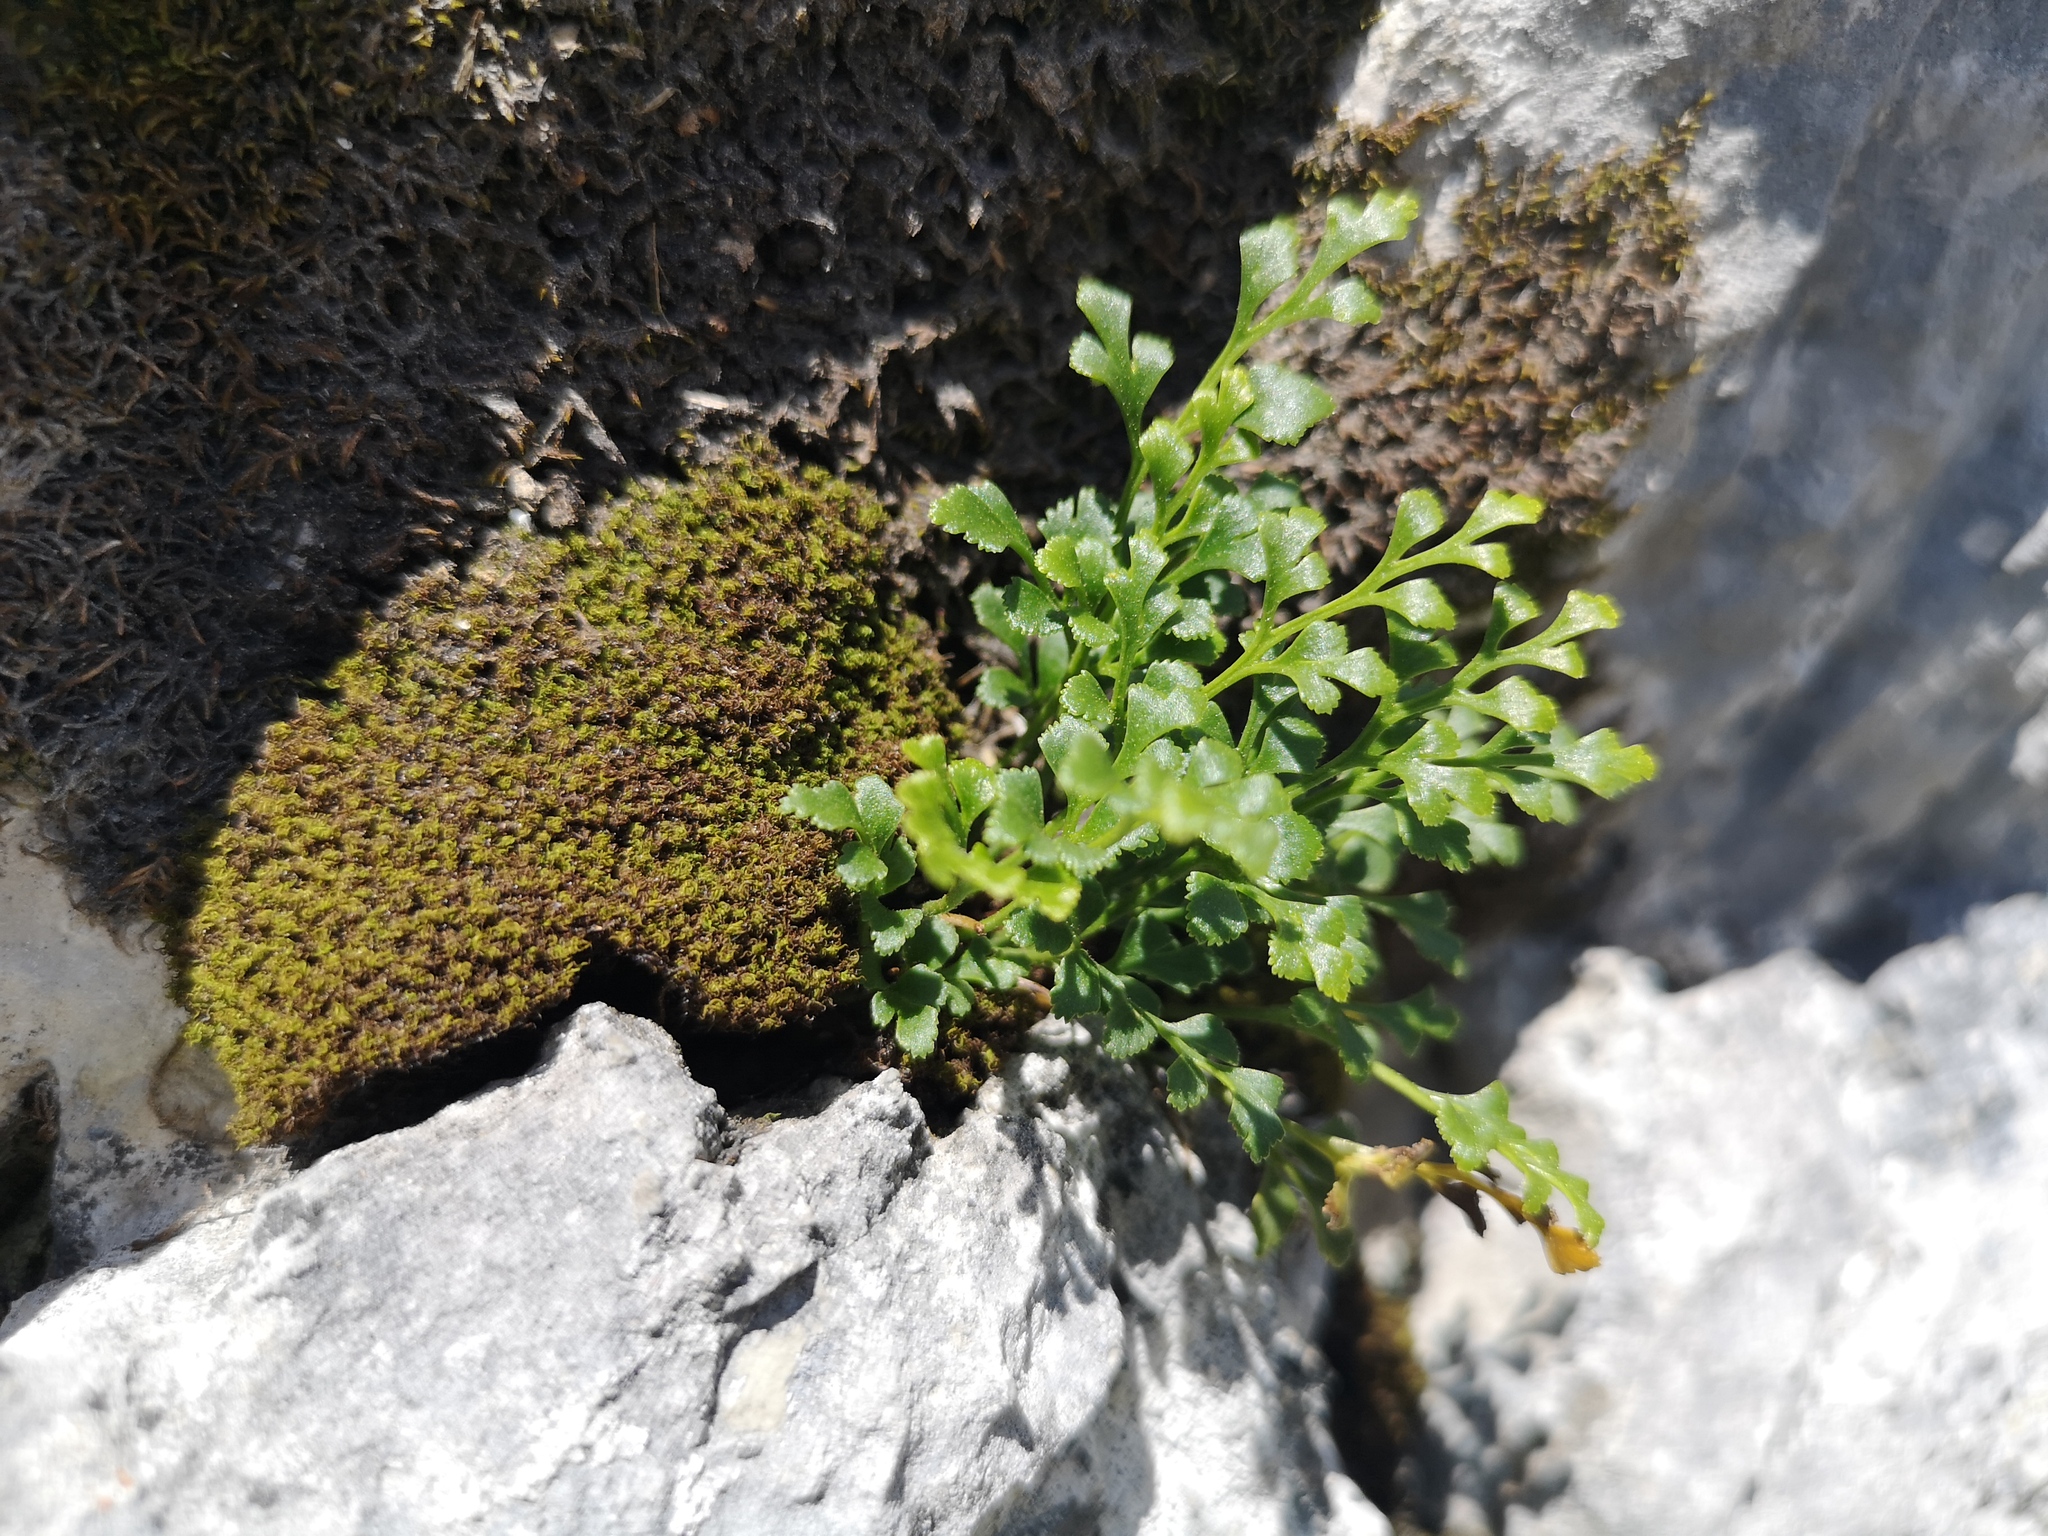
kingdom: Plantae
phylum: Tracheophyta
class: Polypodiopsida
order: Polypodiales
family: Aspleniaceae
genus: Asplenium
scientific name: Asplenium ruta-muraria
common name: Wall-rue
